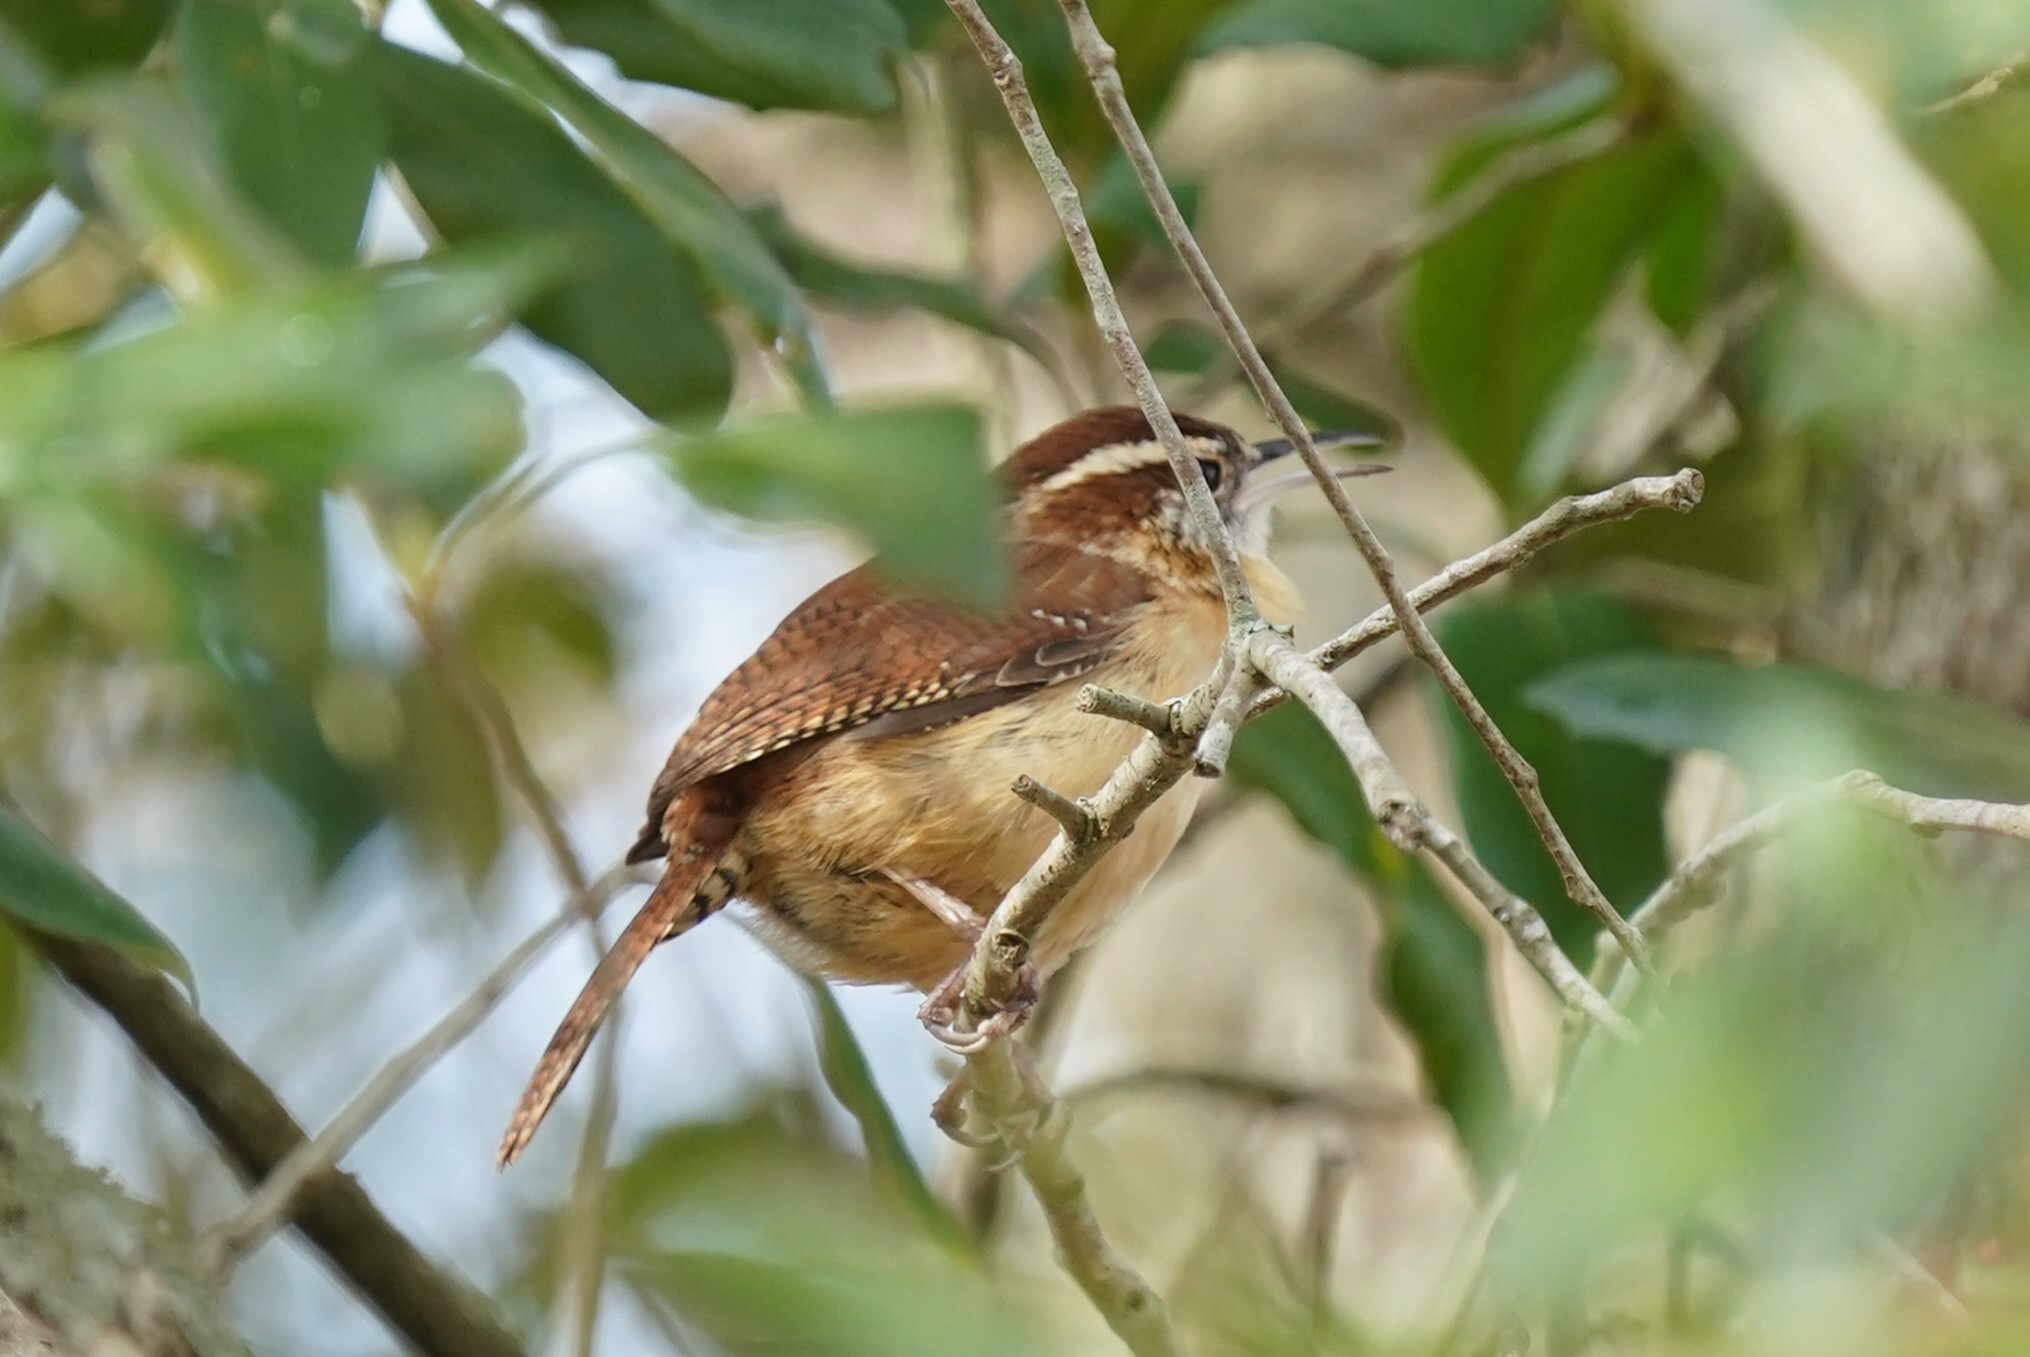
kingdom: Animalia
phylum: Chordata
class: Aves
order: Passeriformes
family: Troglodytidae
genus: Thryothorus
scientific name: Thryothorus ludovicianus
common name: Carolina wren
